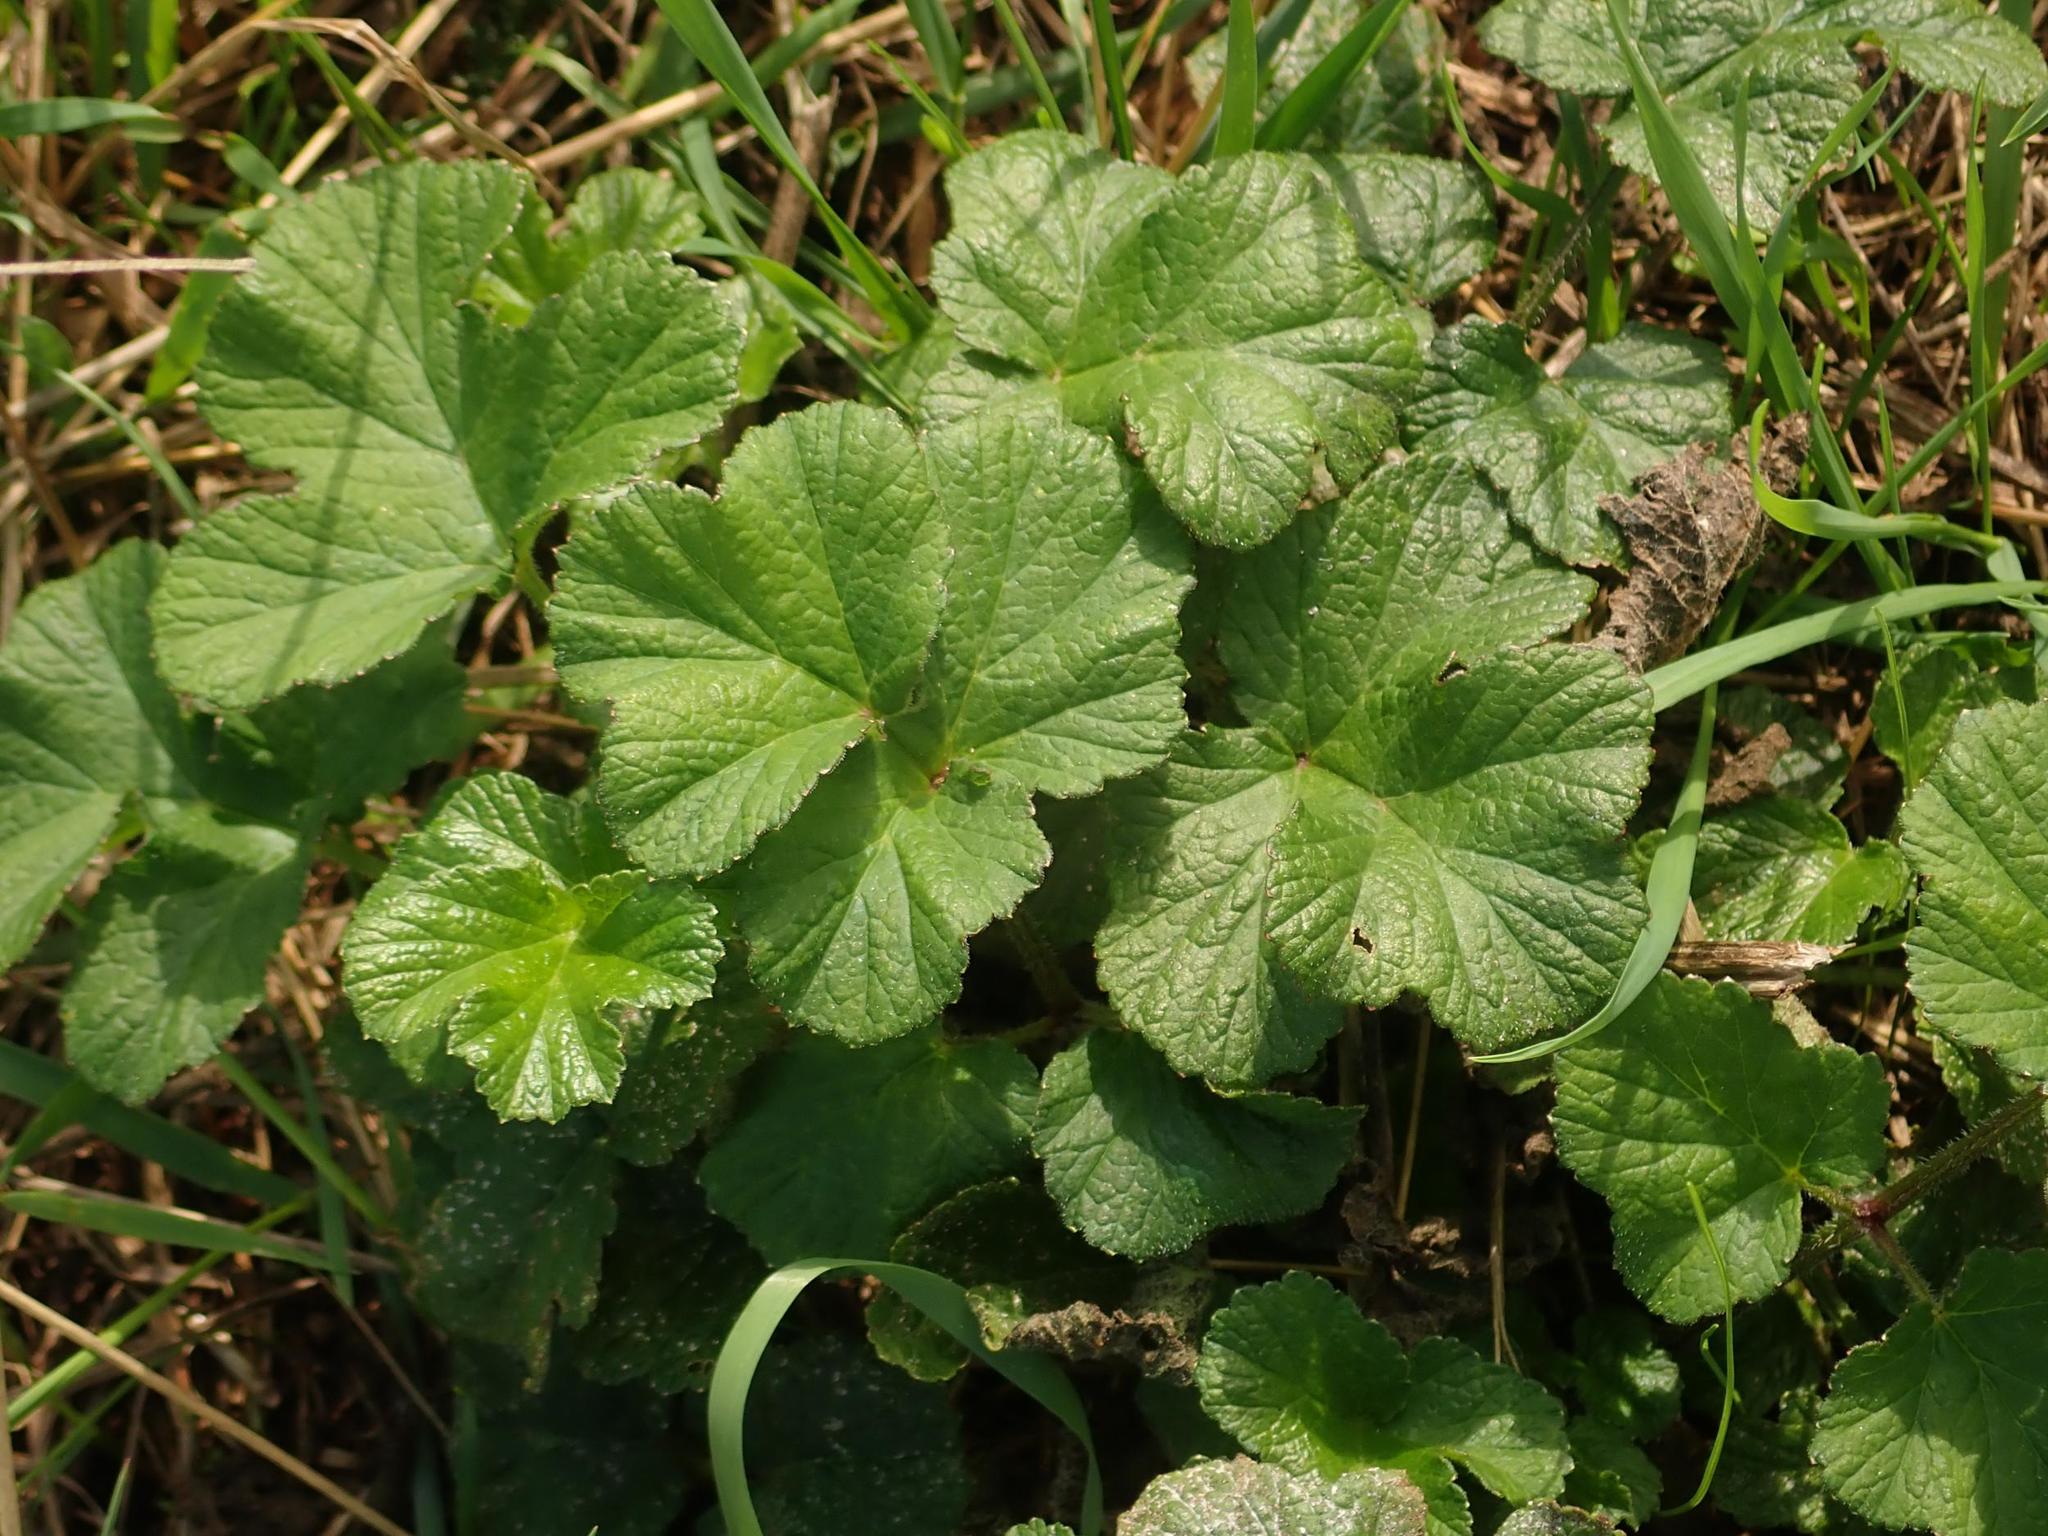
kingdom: Plantae
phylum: Tracheophyta
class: Magnoliopsida
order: Apiales
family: Apiaceae
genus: Heracleum
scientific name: Heracleum sphondylium
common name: Hogweed
